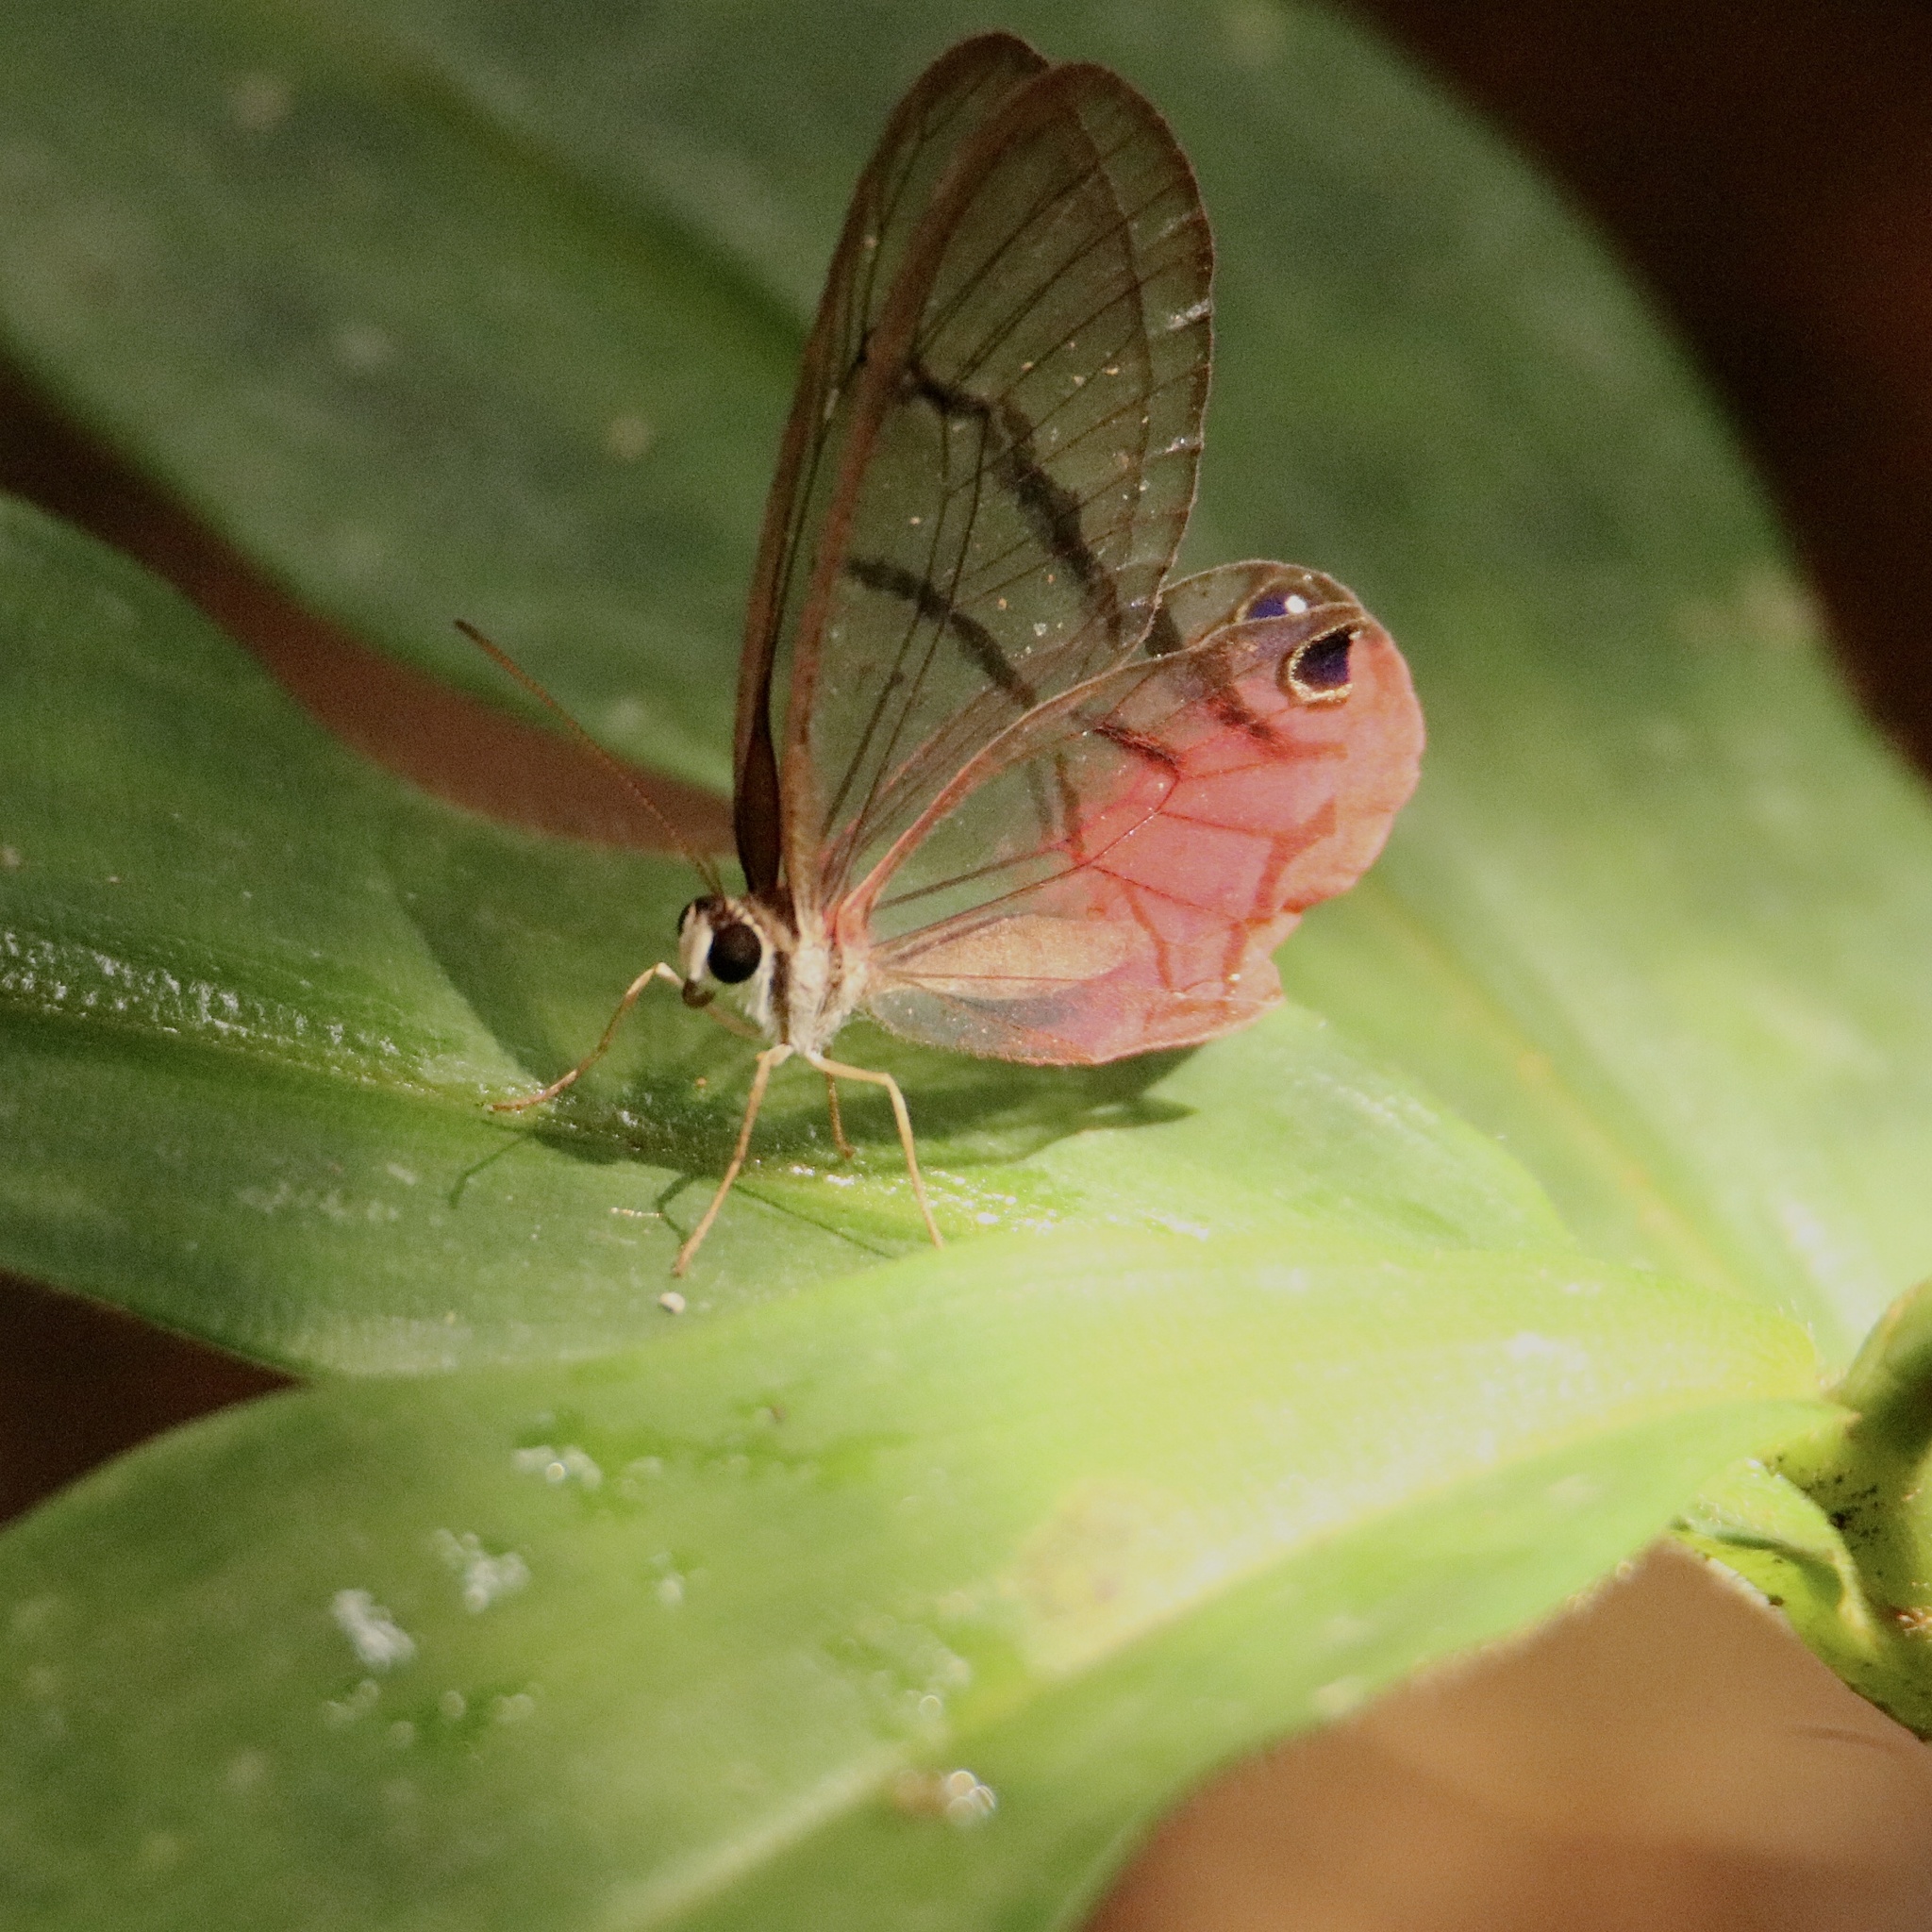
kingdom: Animalia
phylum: Arthropoda
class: Insecta
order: Lepidoptera
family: Nymphalidae
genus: Cithaerias
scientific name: Cithaerias pireta
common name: Rusted clearwing-satyr
